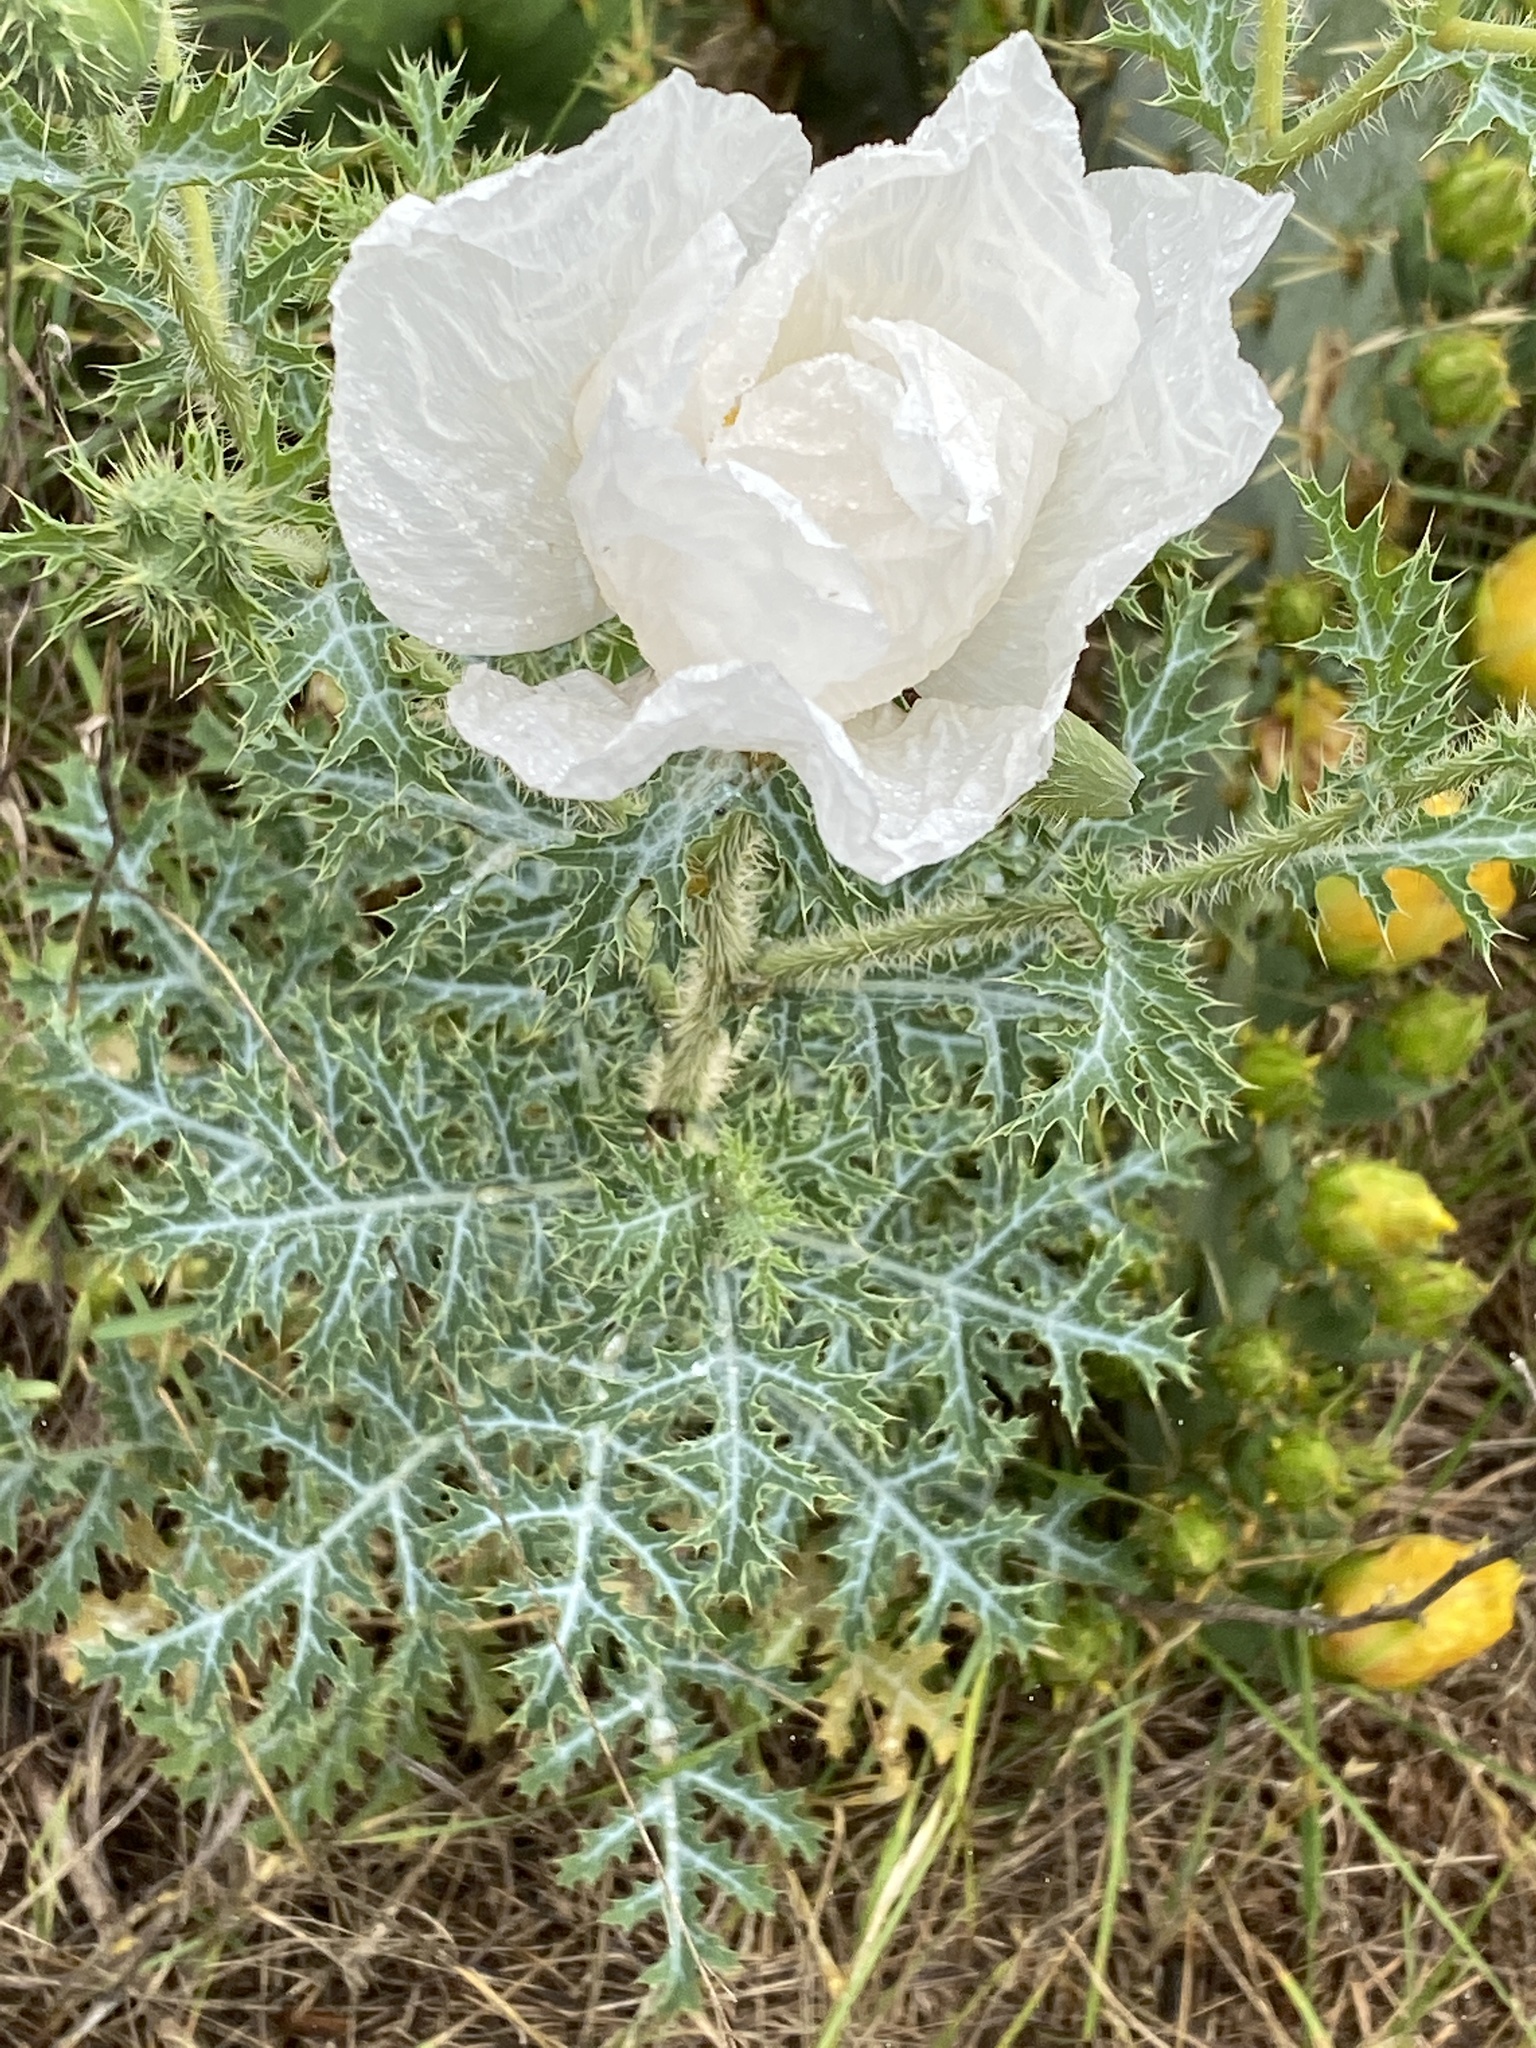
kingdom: Plantae
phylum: Tracheophyta
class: Magnoliopsida
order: Ranunculales
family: Papaveraceae
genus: Argemone
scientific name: Argemone albiflora
